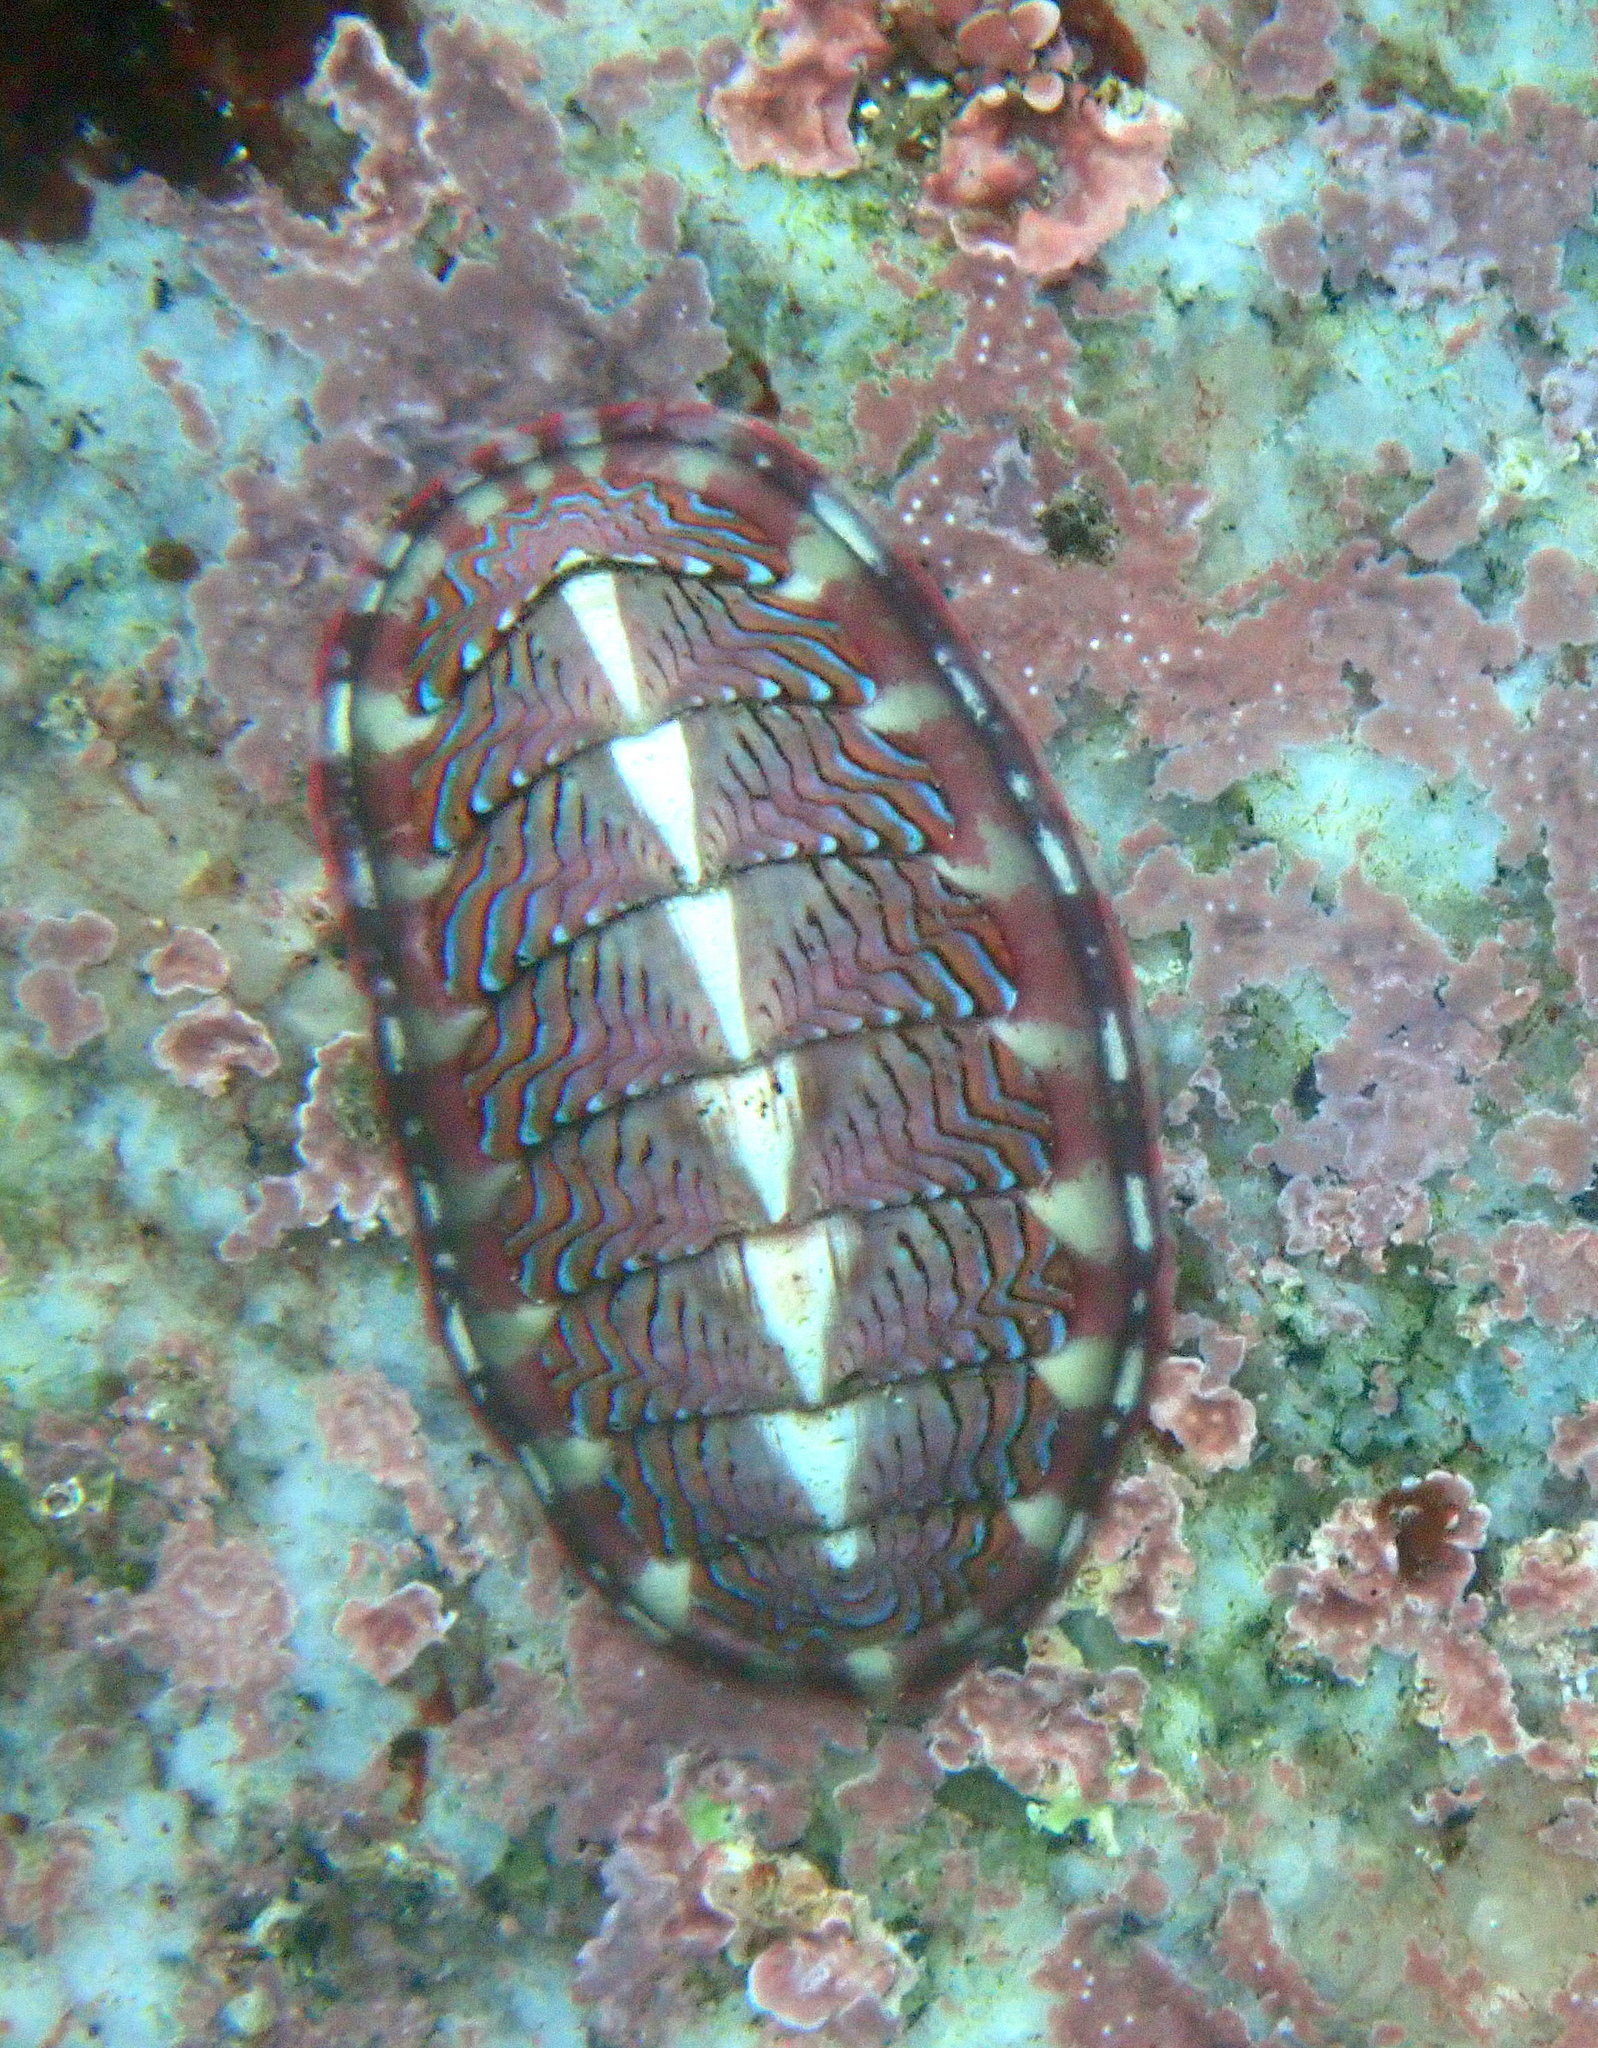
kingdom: Animalia
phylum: Mollusca
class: Polyplacophora
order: Chitonida
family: Tonicellidae
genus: Tonicella
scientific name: Tonicella lokii
